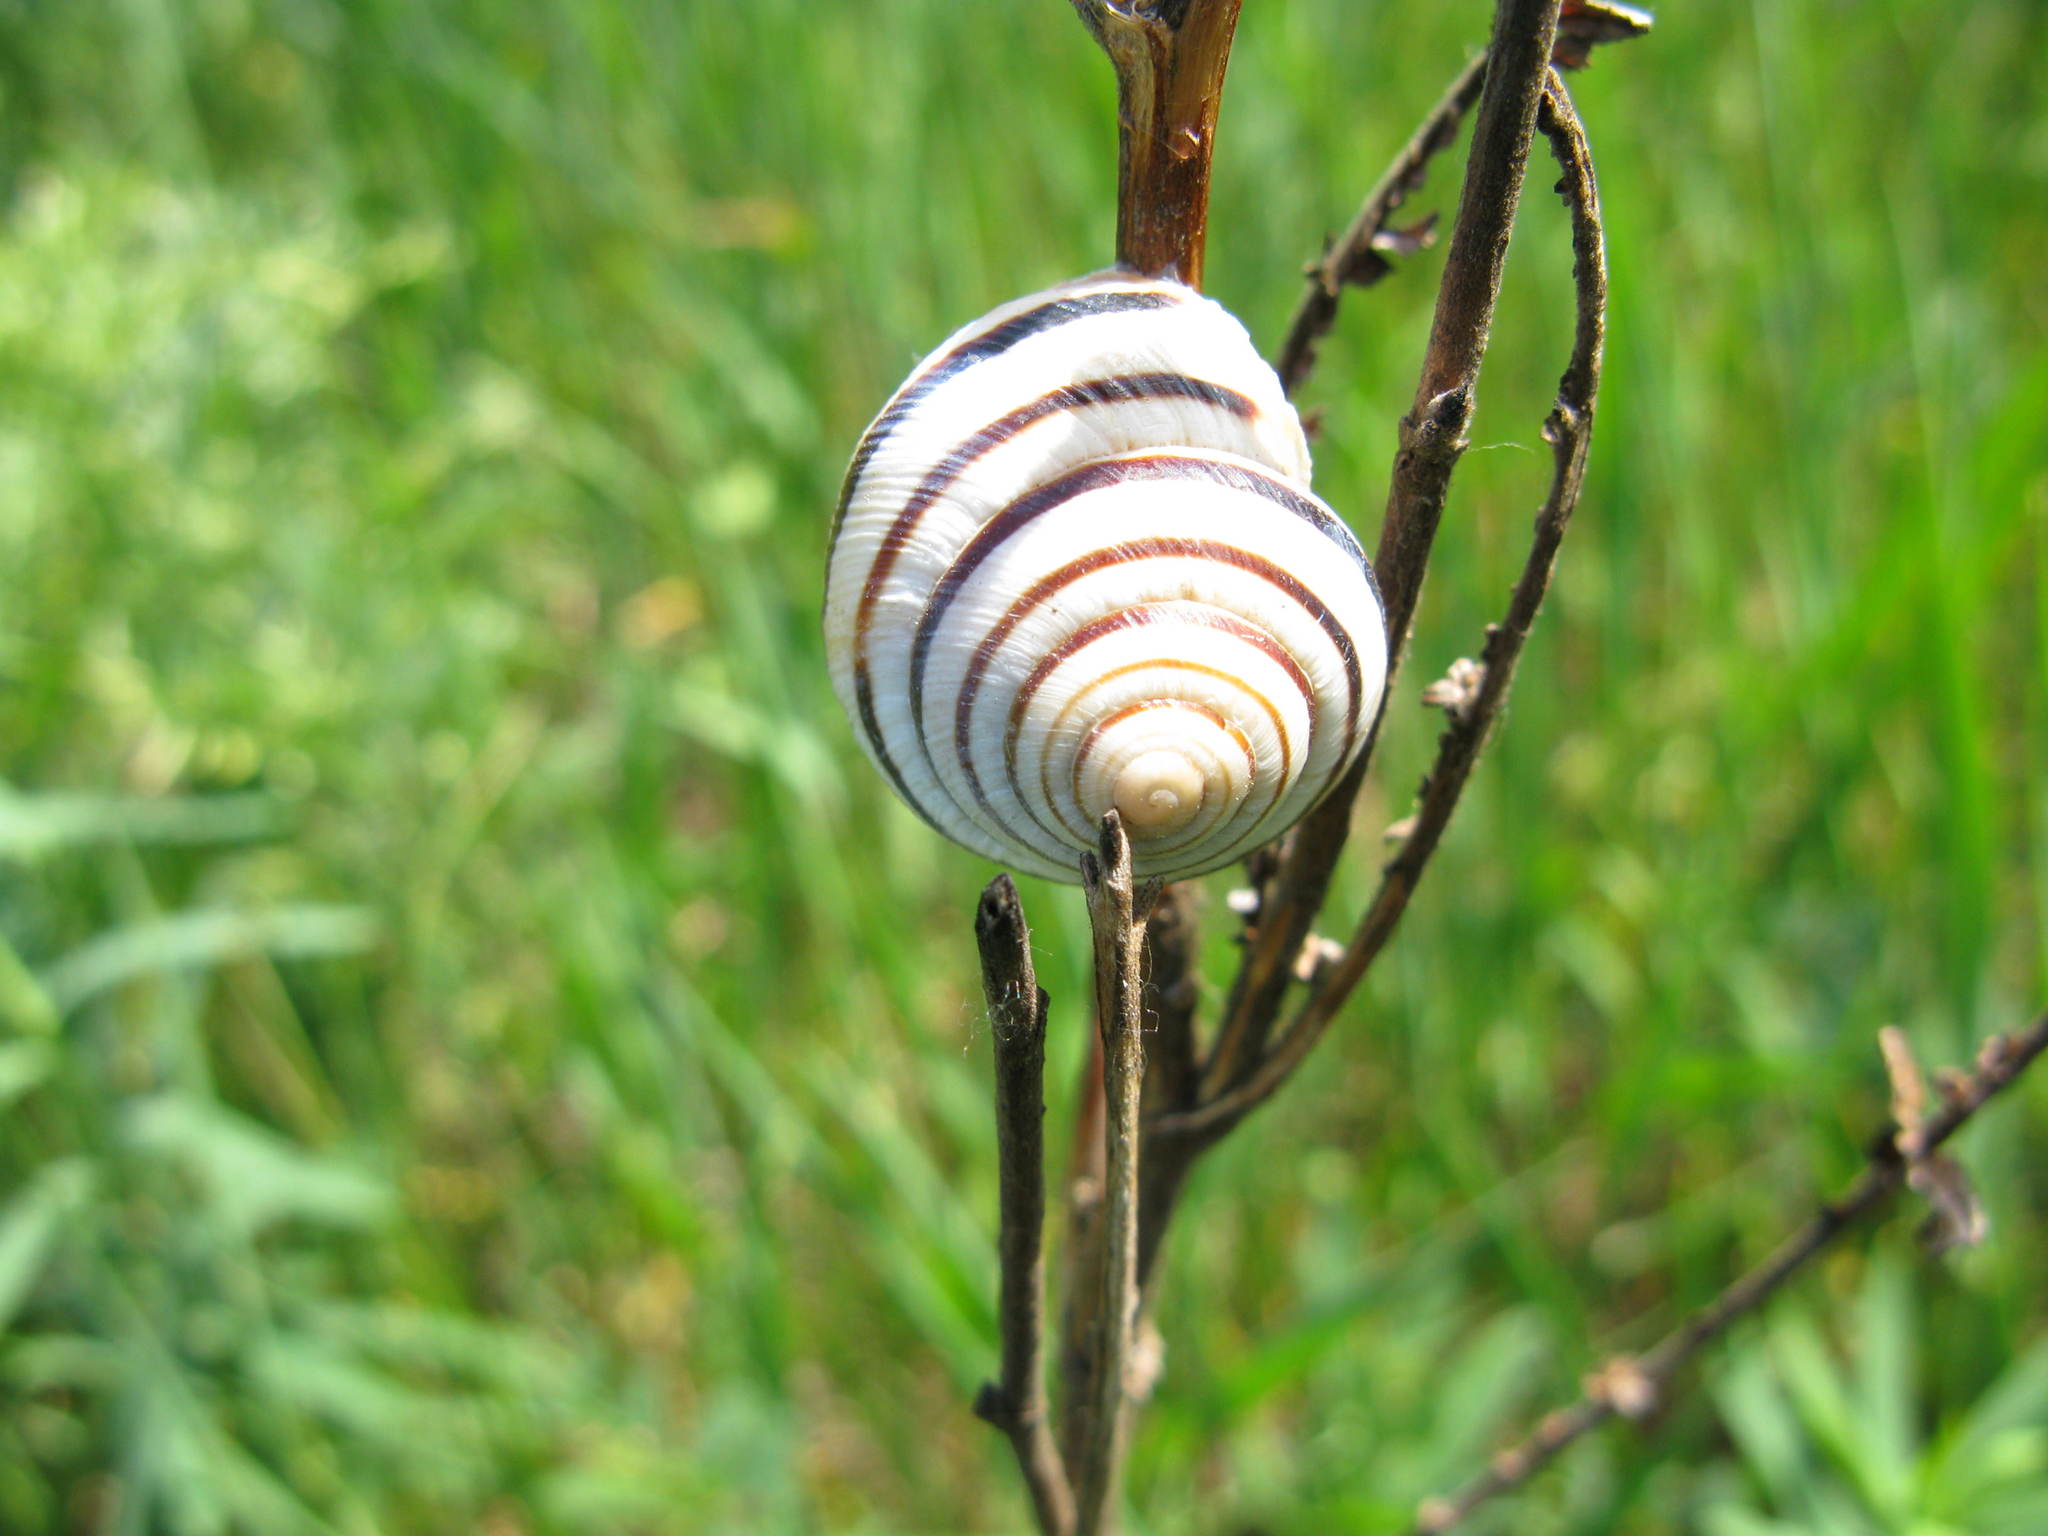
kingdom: Animalia
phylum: Mollusca
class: Gastropoda
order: Stylommatophora
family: Helicidae
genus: Caucasotachea
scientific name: Caucasotachea vindobonensis
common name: European helicid land snail
